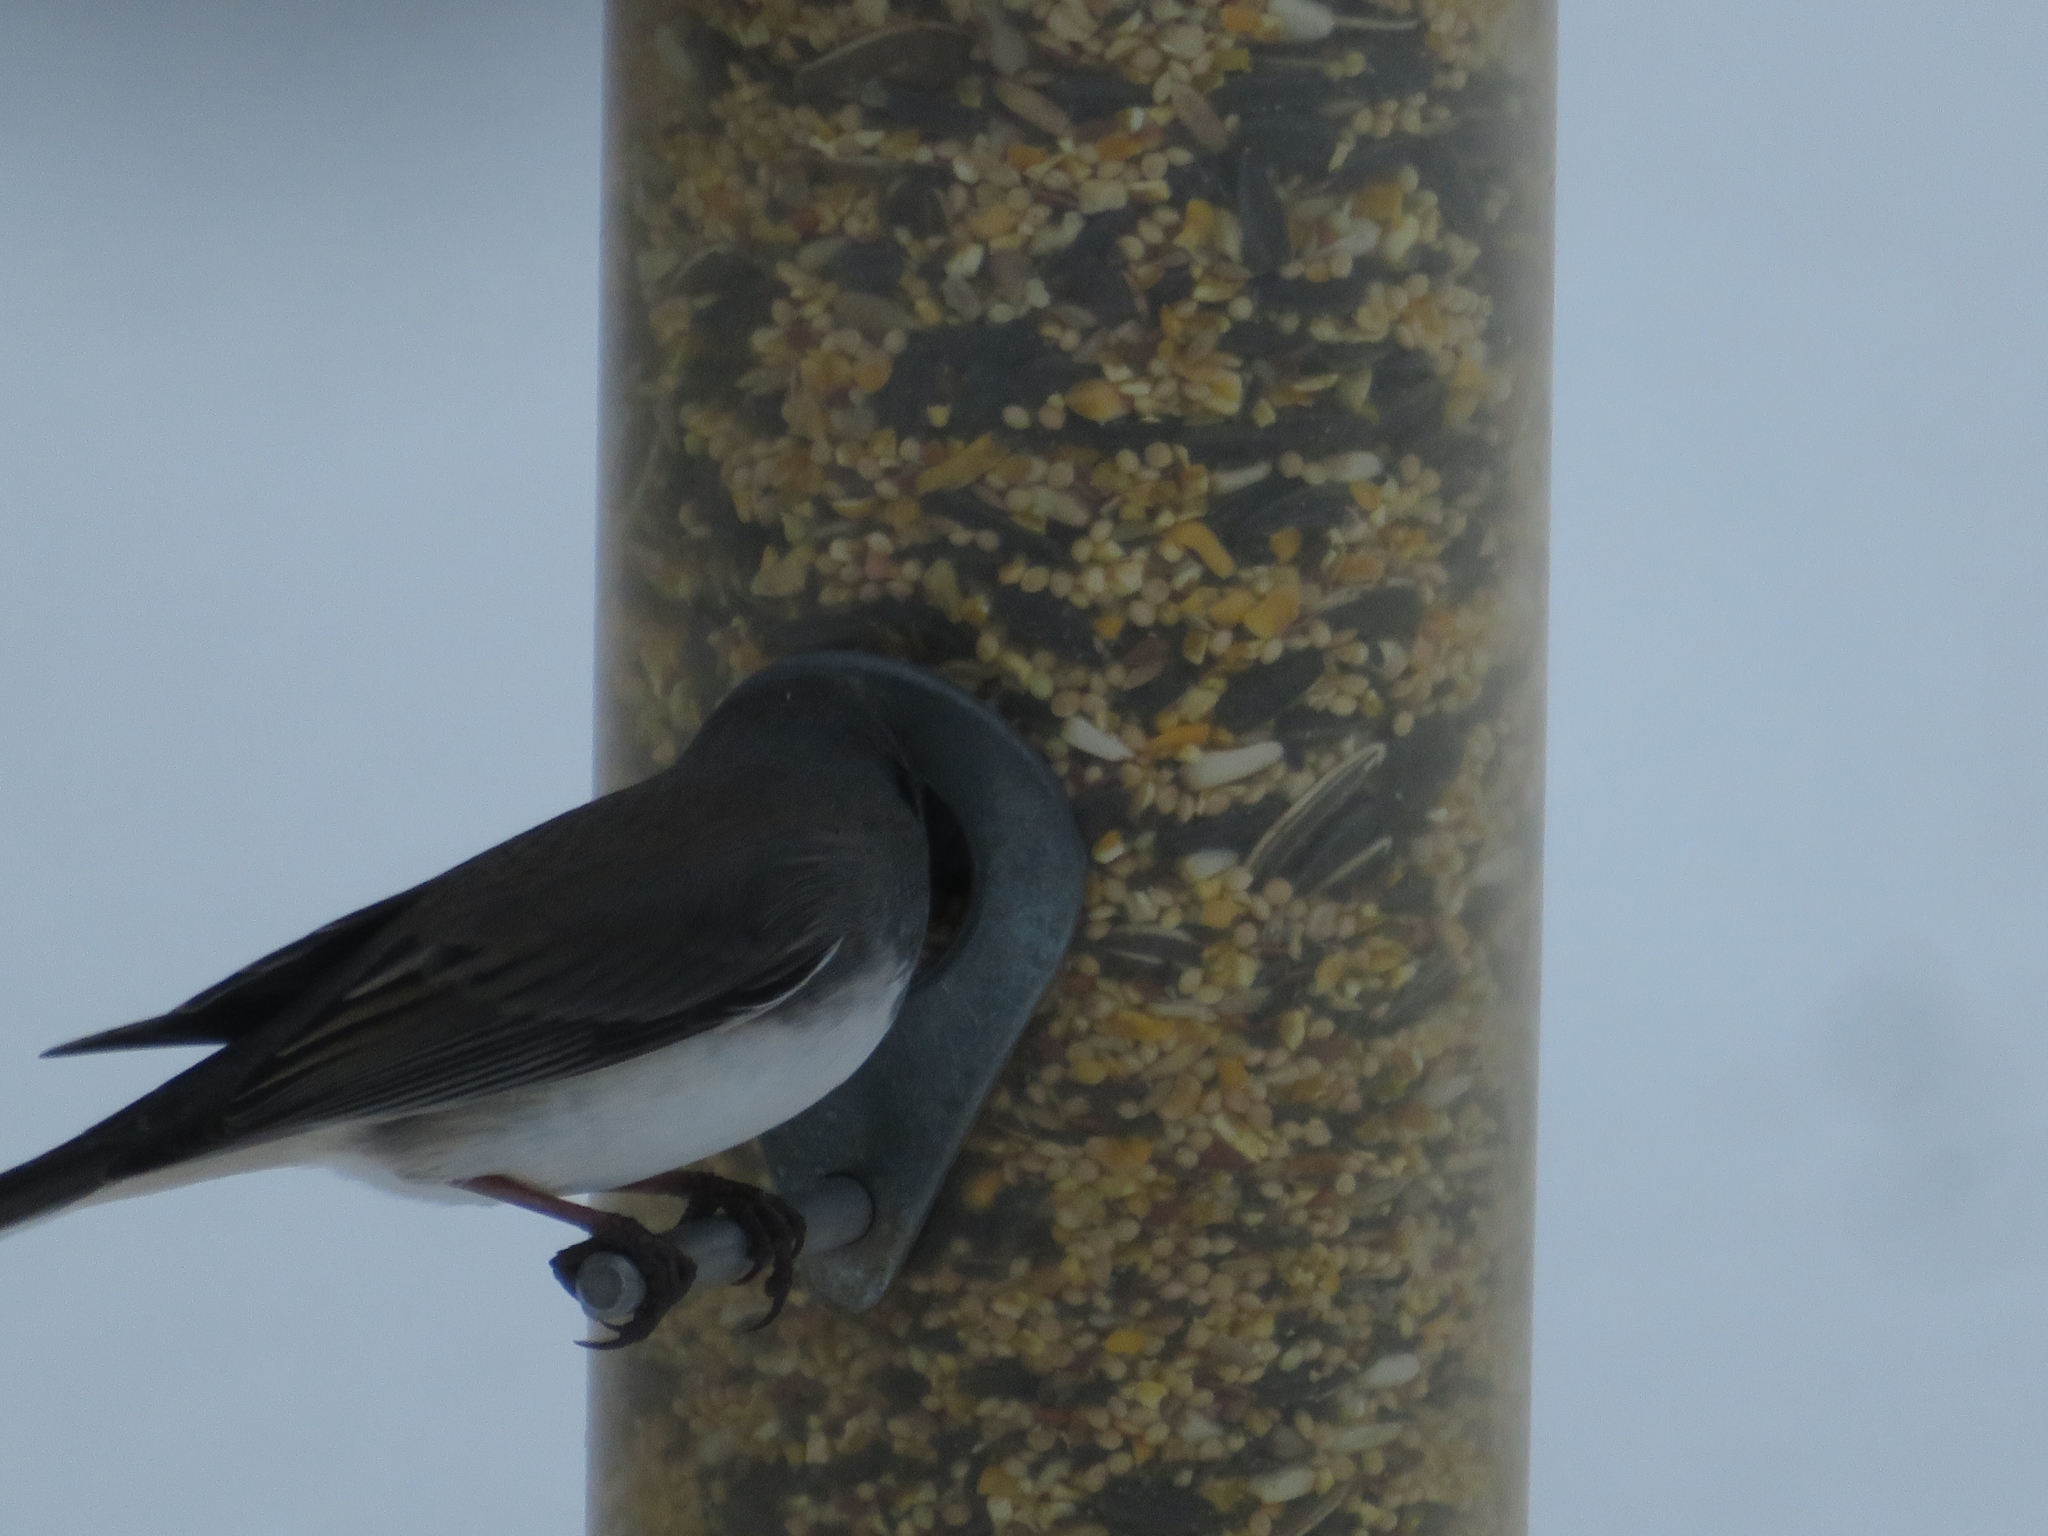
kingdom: Animalia
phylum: Chordata
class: Aves
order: Passeriformes
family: Passerellidae
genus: Junco
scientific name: Junco hyemalis
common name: Dark-eyed junco
